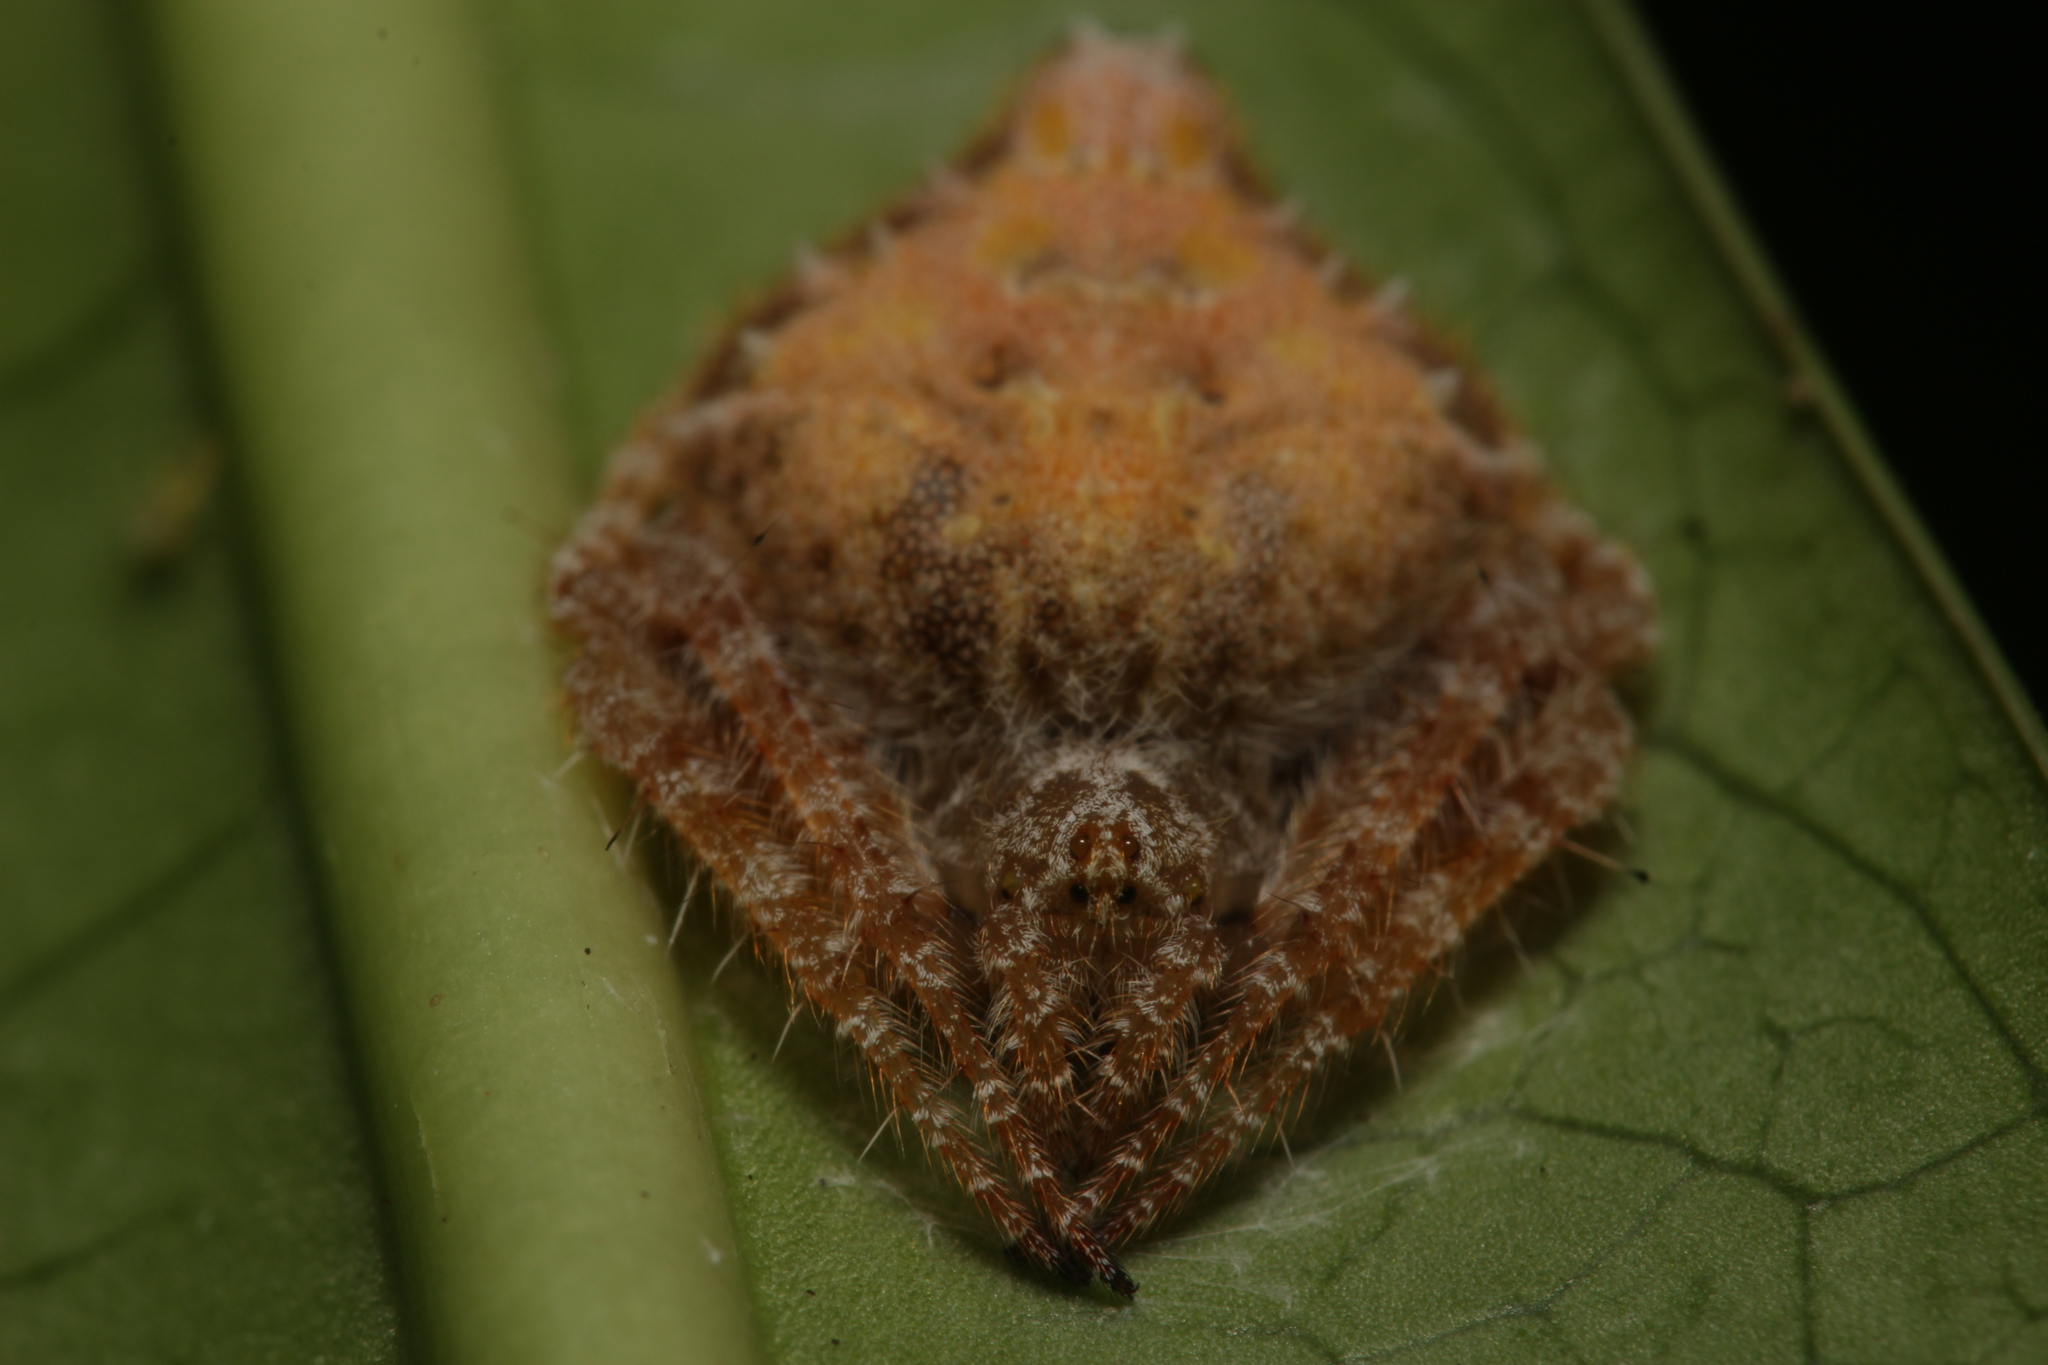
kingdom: Animalia
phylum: Arthropoda
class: Arachnida
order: Araneae
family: Araneidae
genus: Eriovixia
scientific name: Eriovixia laglaizei
